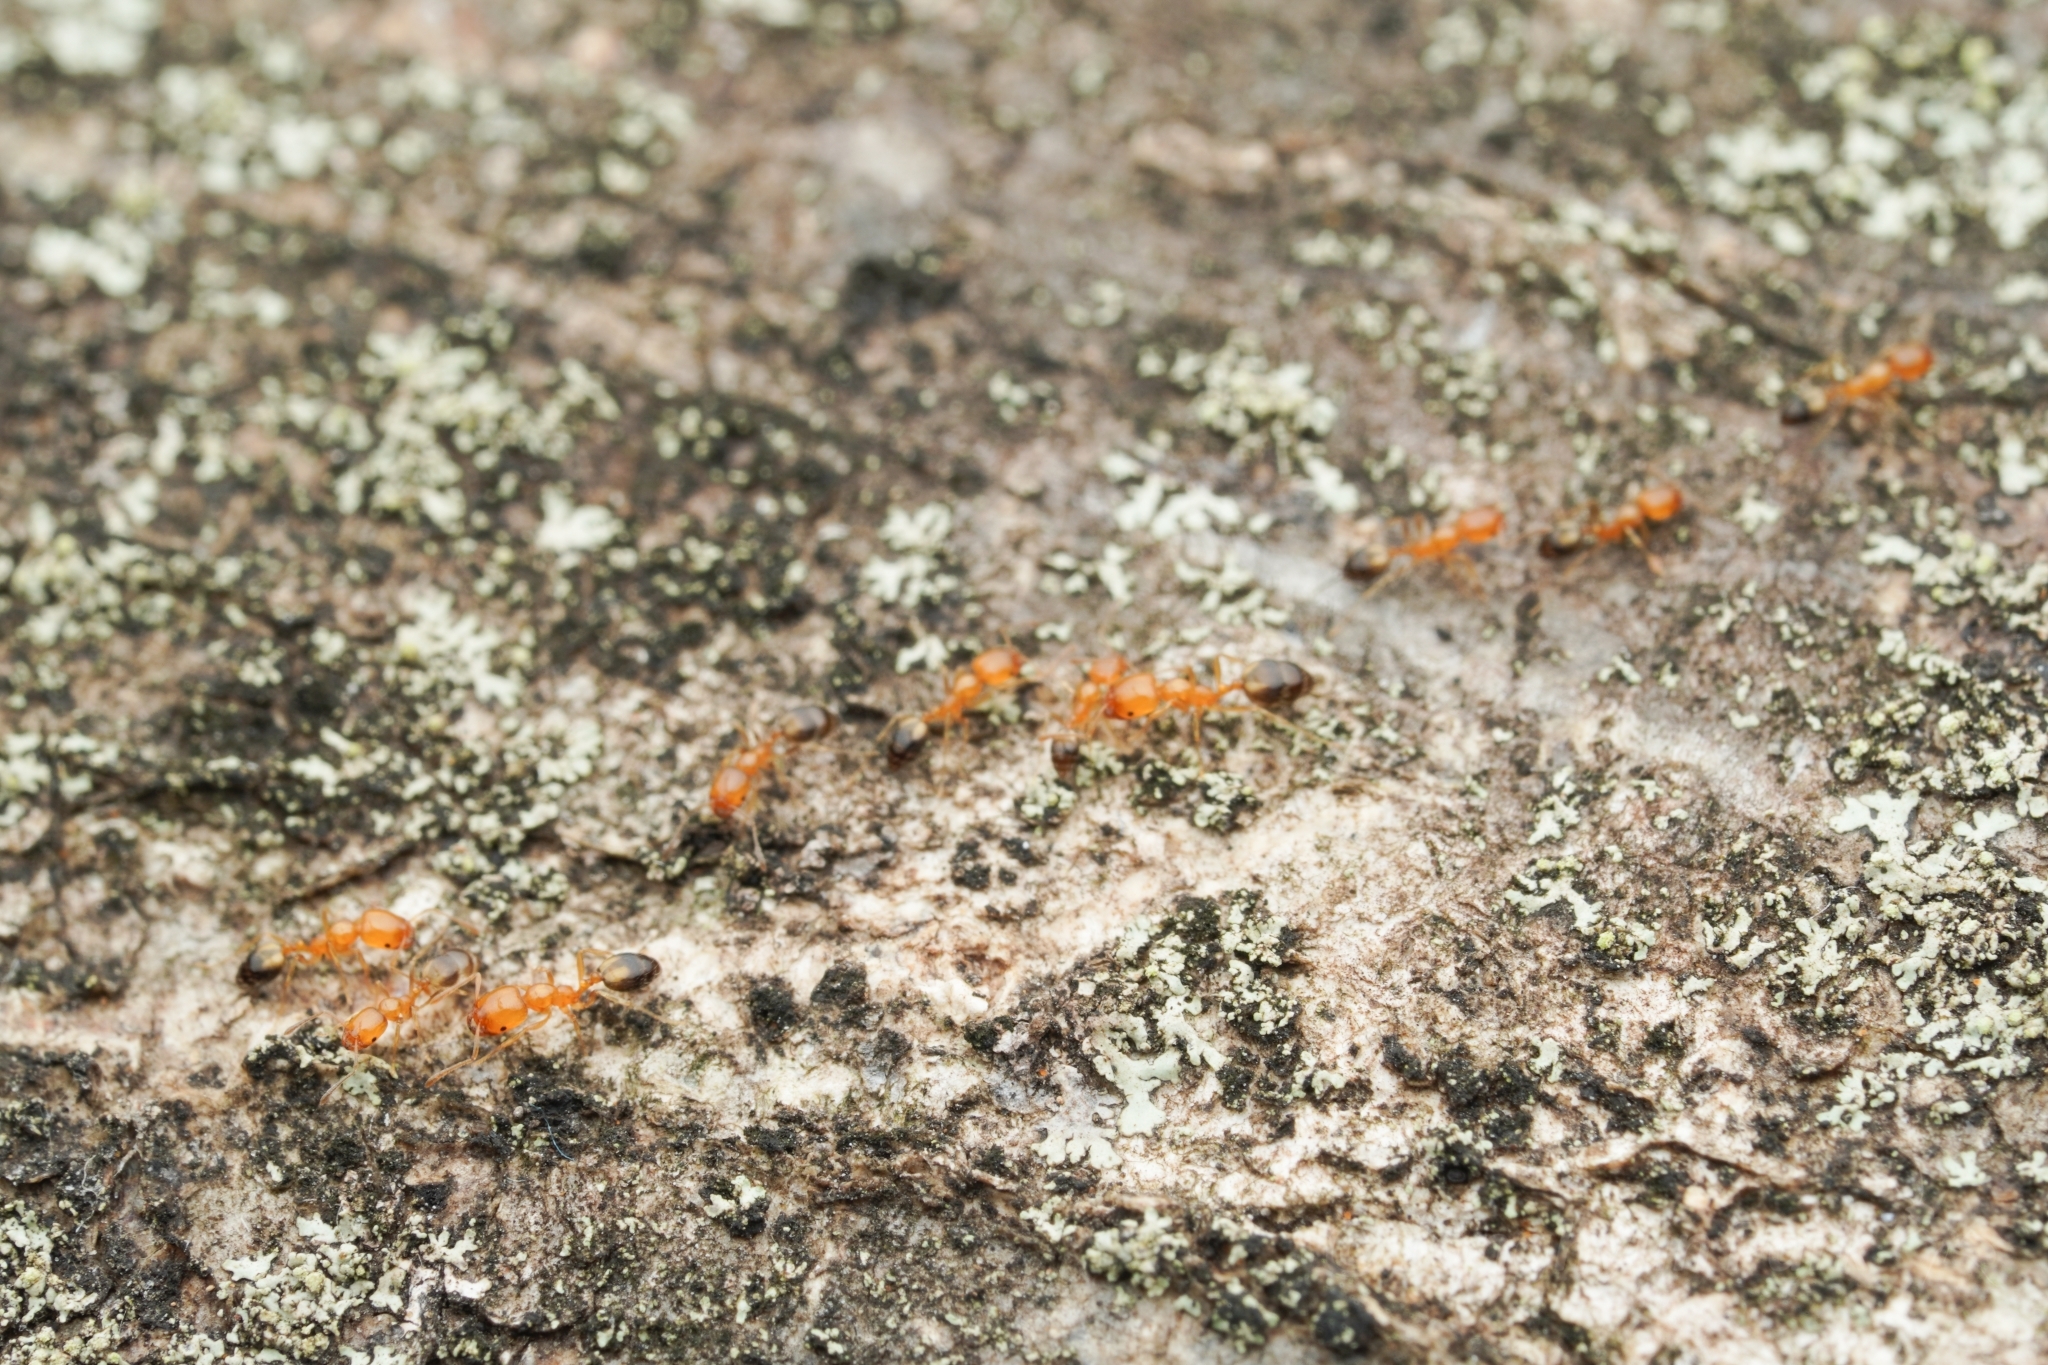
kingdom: Animalia
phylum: Arthropoda
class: Insecta
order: Hymenoptera
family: Formicidae
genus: Monomorium
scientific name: Monomorium destructor
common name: Destructive trailing ant
